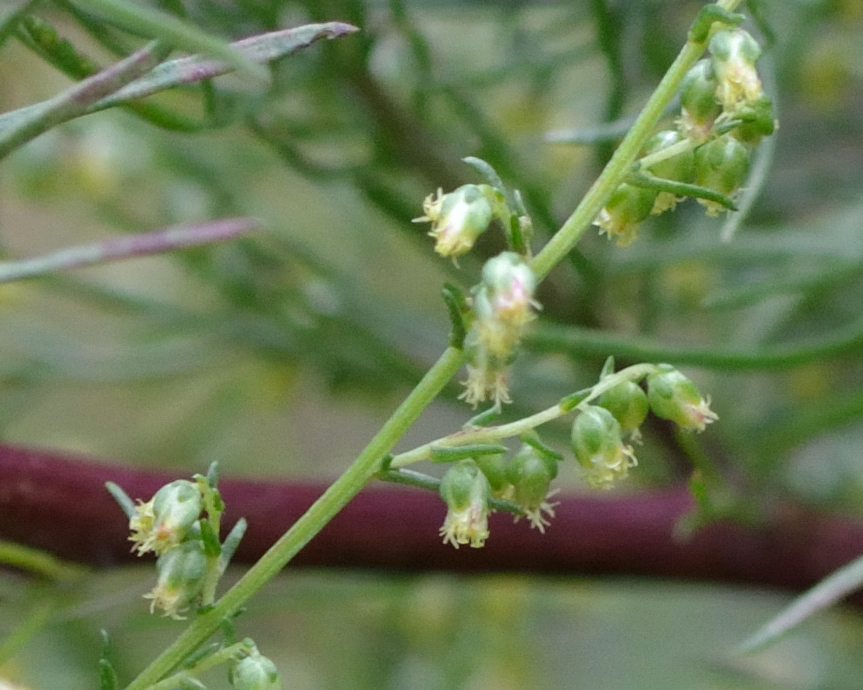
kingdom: Plantae
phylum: Tracheophyta
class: Magnoliopsida
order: Asterales
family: Asteraceae
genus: Artemisia
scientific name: Artemisia campestris
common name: Field wormwood
